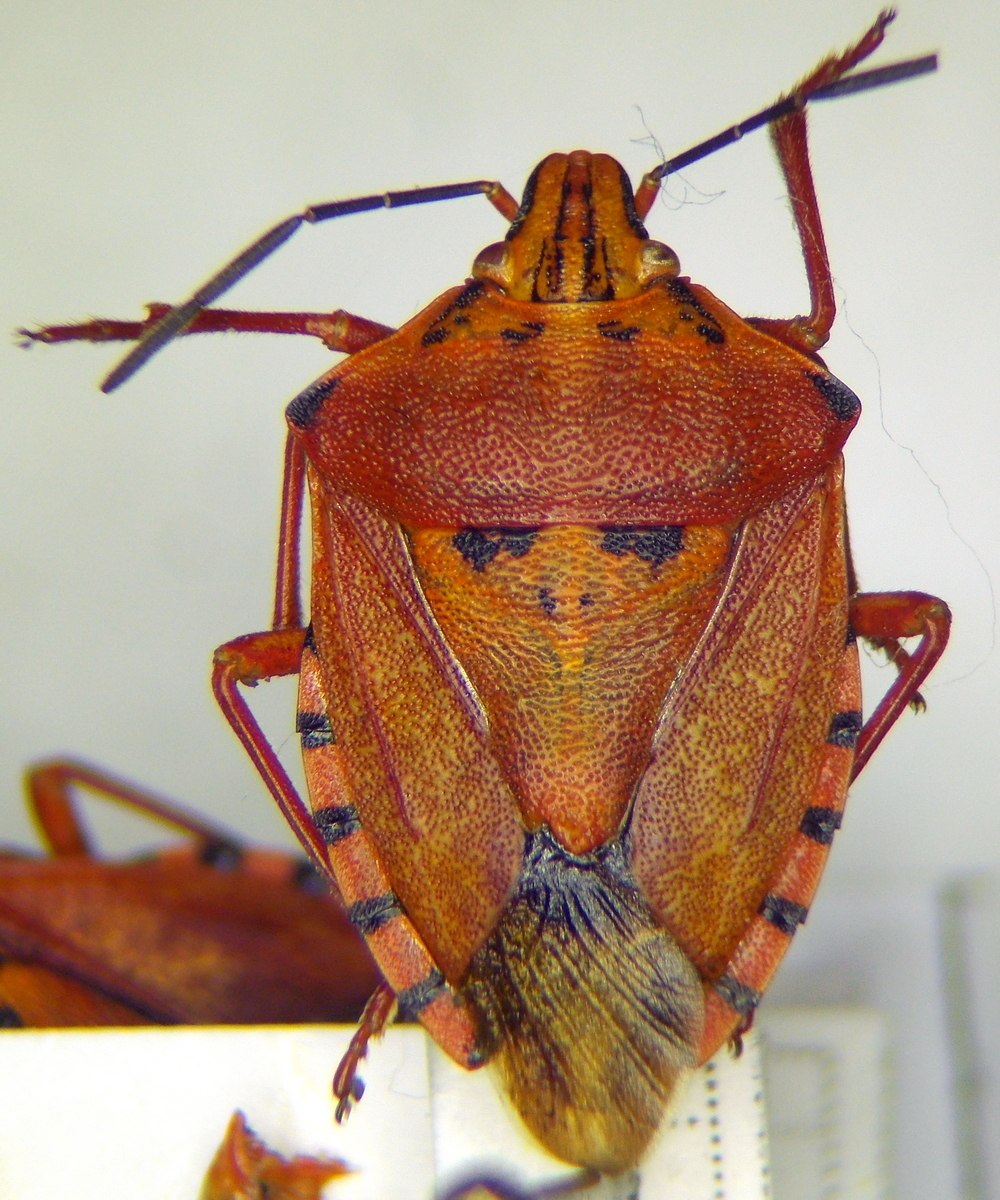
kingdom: Animalia
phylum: Arthropoda
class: Insecta
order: Hemiptera
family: Pentatomidae
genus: Carpocoris
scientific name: Carpocoris mediterraneus
